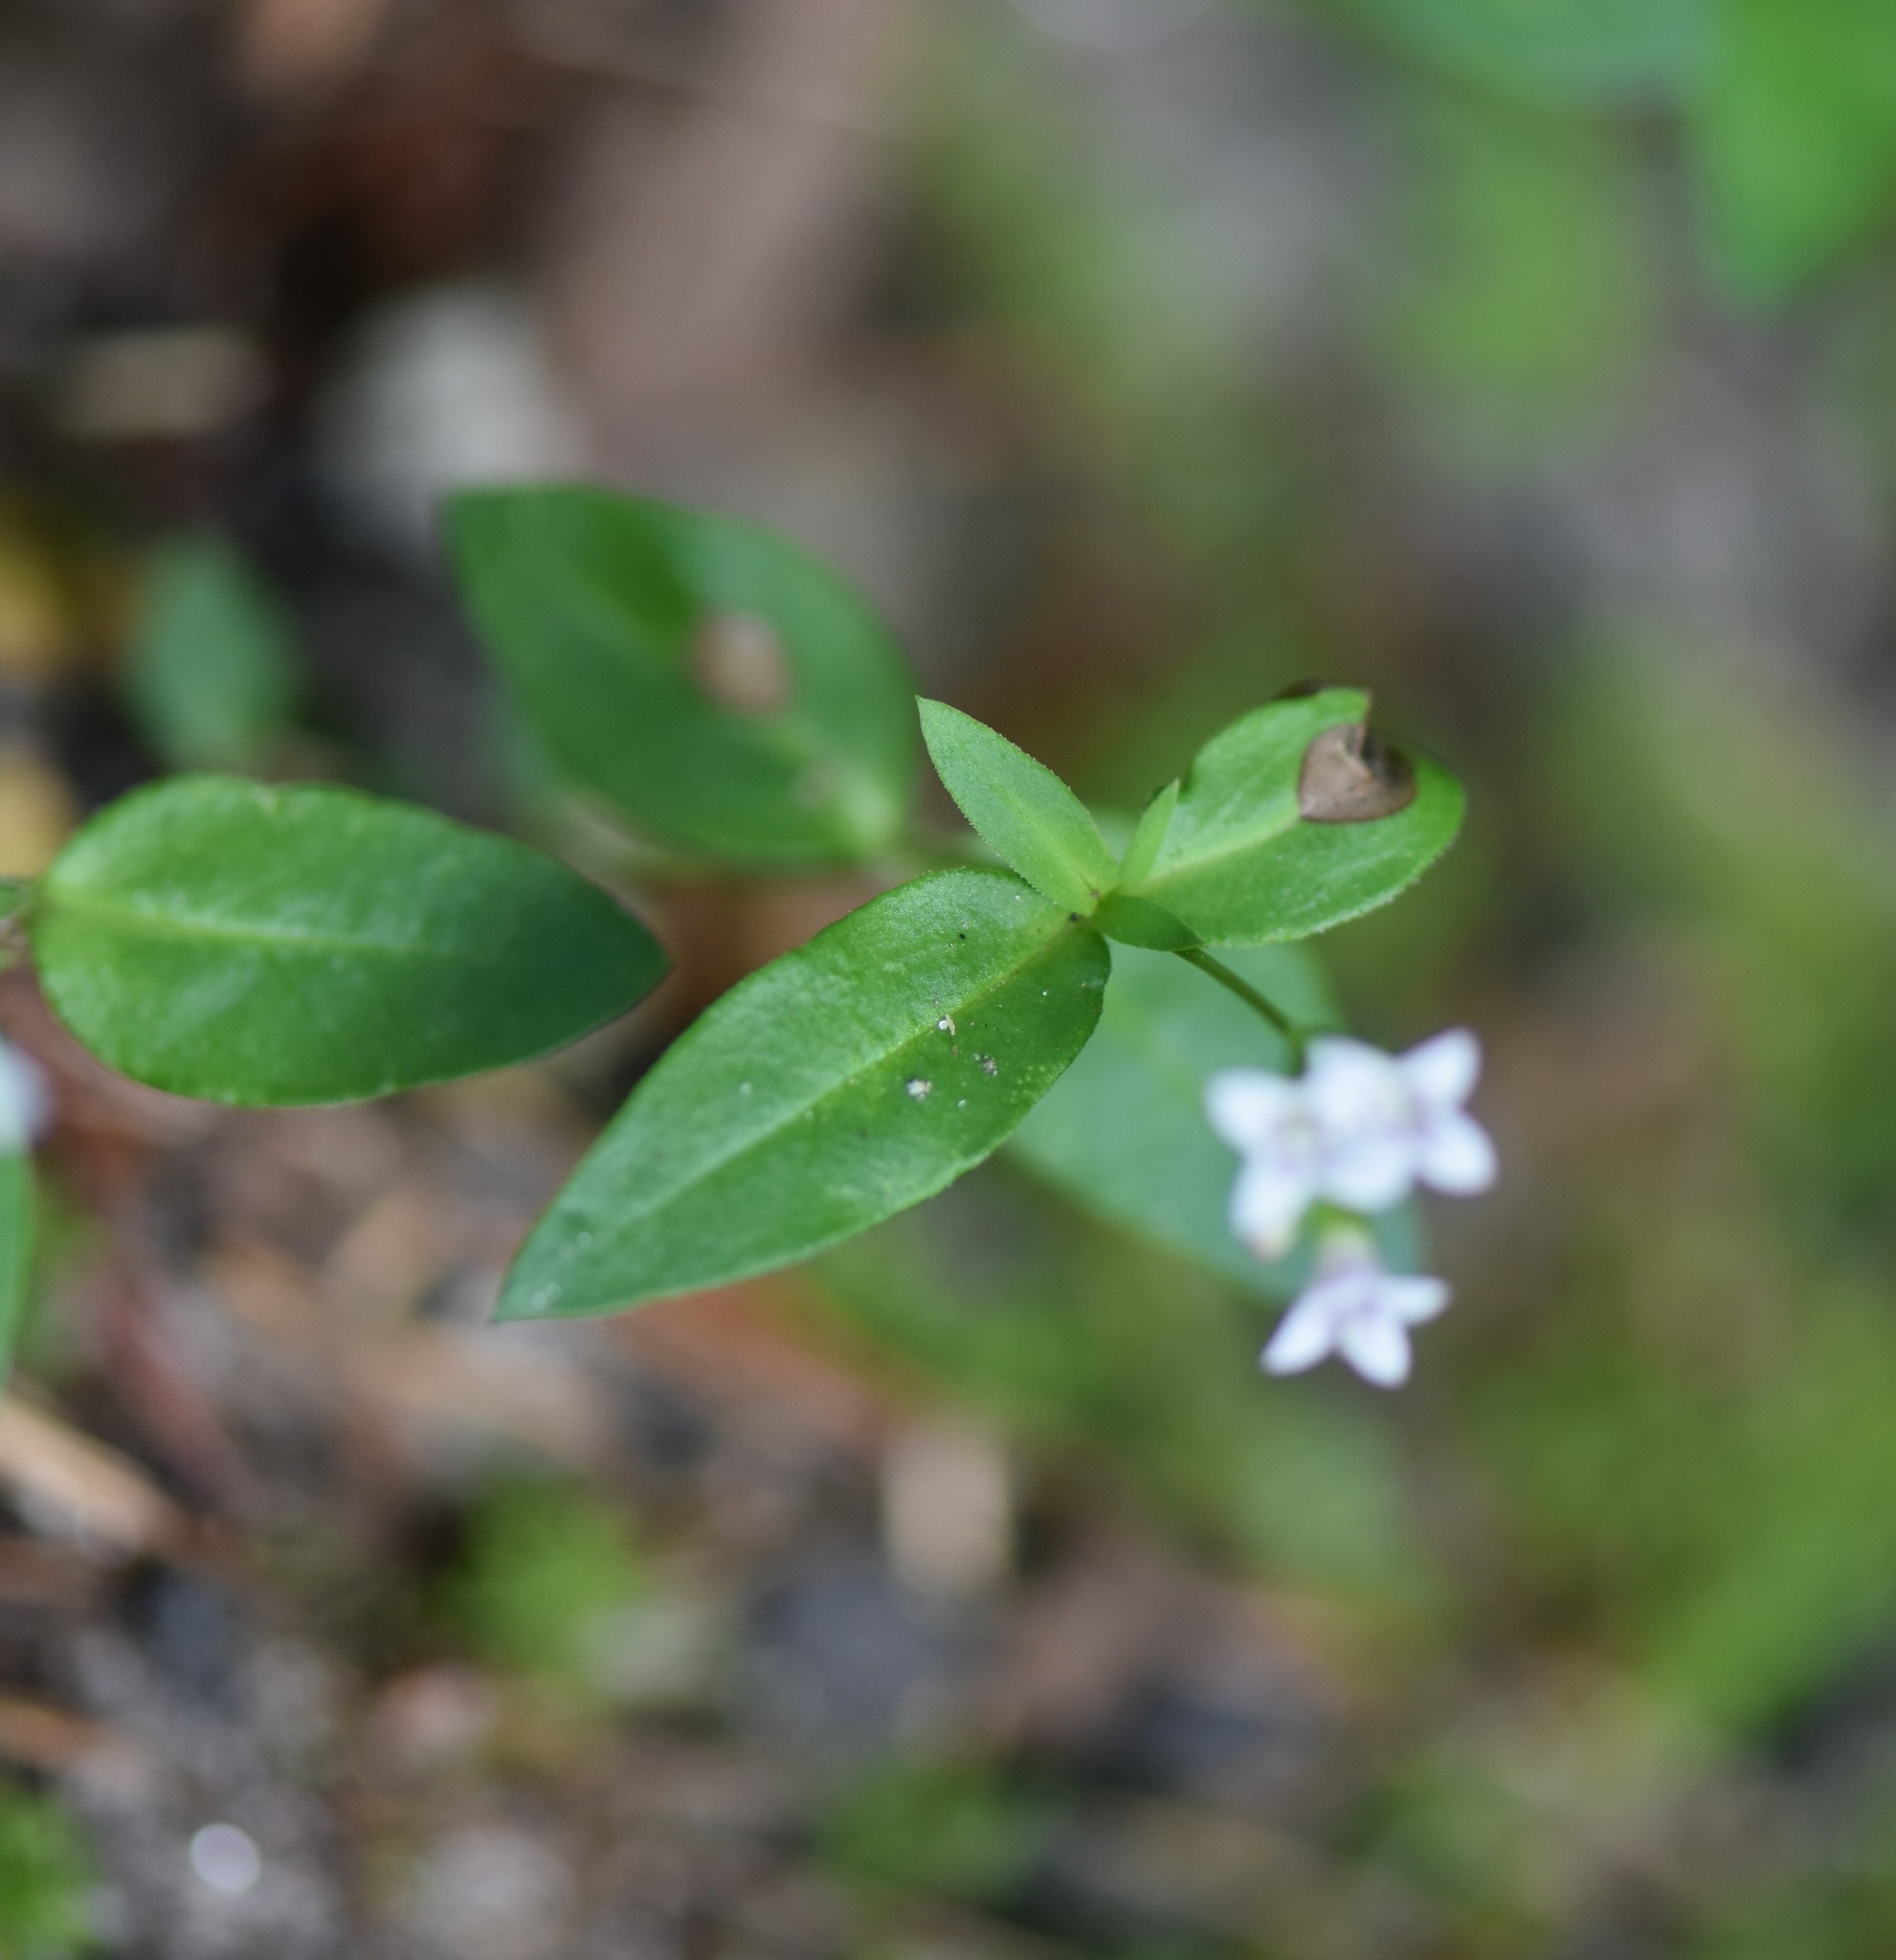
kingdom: Plantae
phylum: Tracheophyta
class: Magnoliopsida
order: Gentianales
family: Rubiaceae
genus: Houstonia
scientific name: Houstonia purpurea
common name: Summer bluet
